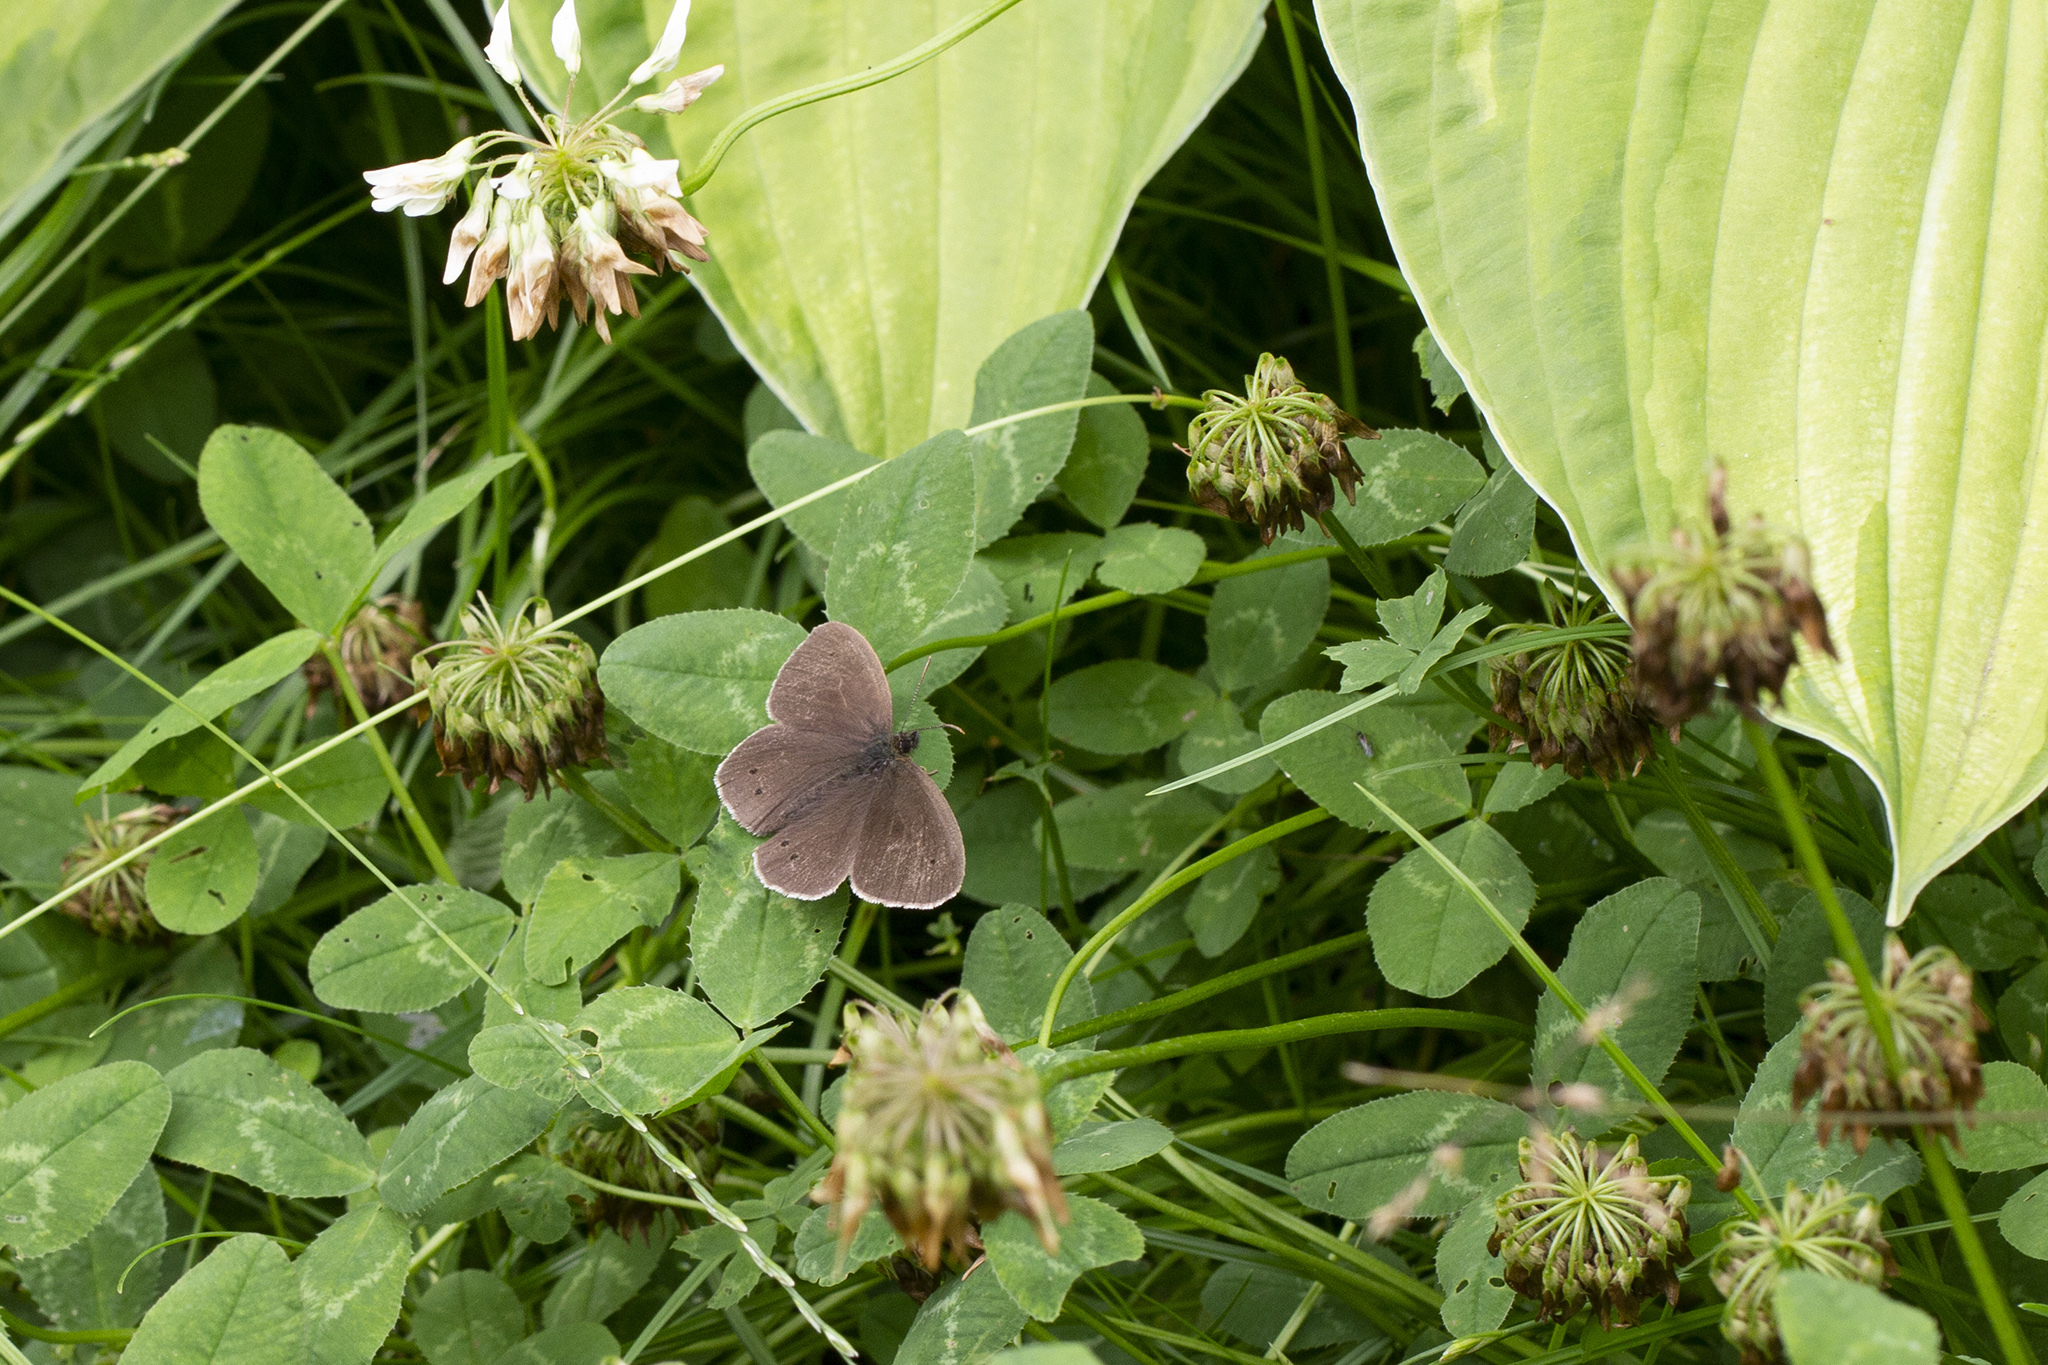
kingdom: Animalia
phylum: Arthropoda
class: Insecta
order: Lepidoptera
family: Nymphalidae
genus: Aphantopus
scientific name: Aphantopus hyperantus
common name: Ringlet
